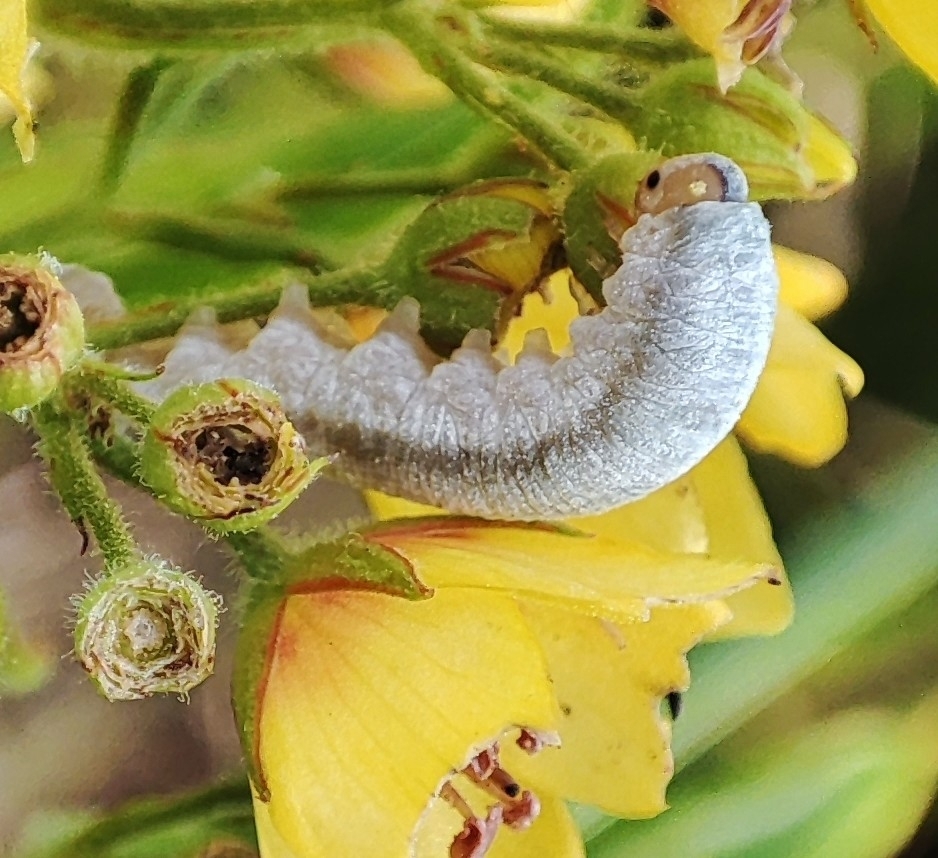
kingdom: Animalia
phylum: Arthropoda
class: Insecta
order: Hymenoptera
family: Tenthredinidae
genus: Monostegia
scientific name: Monostegia abdominalis
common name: Tenthredid wasp
